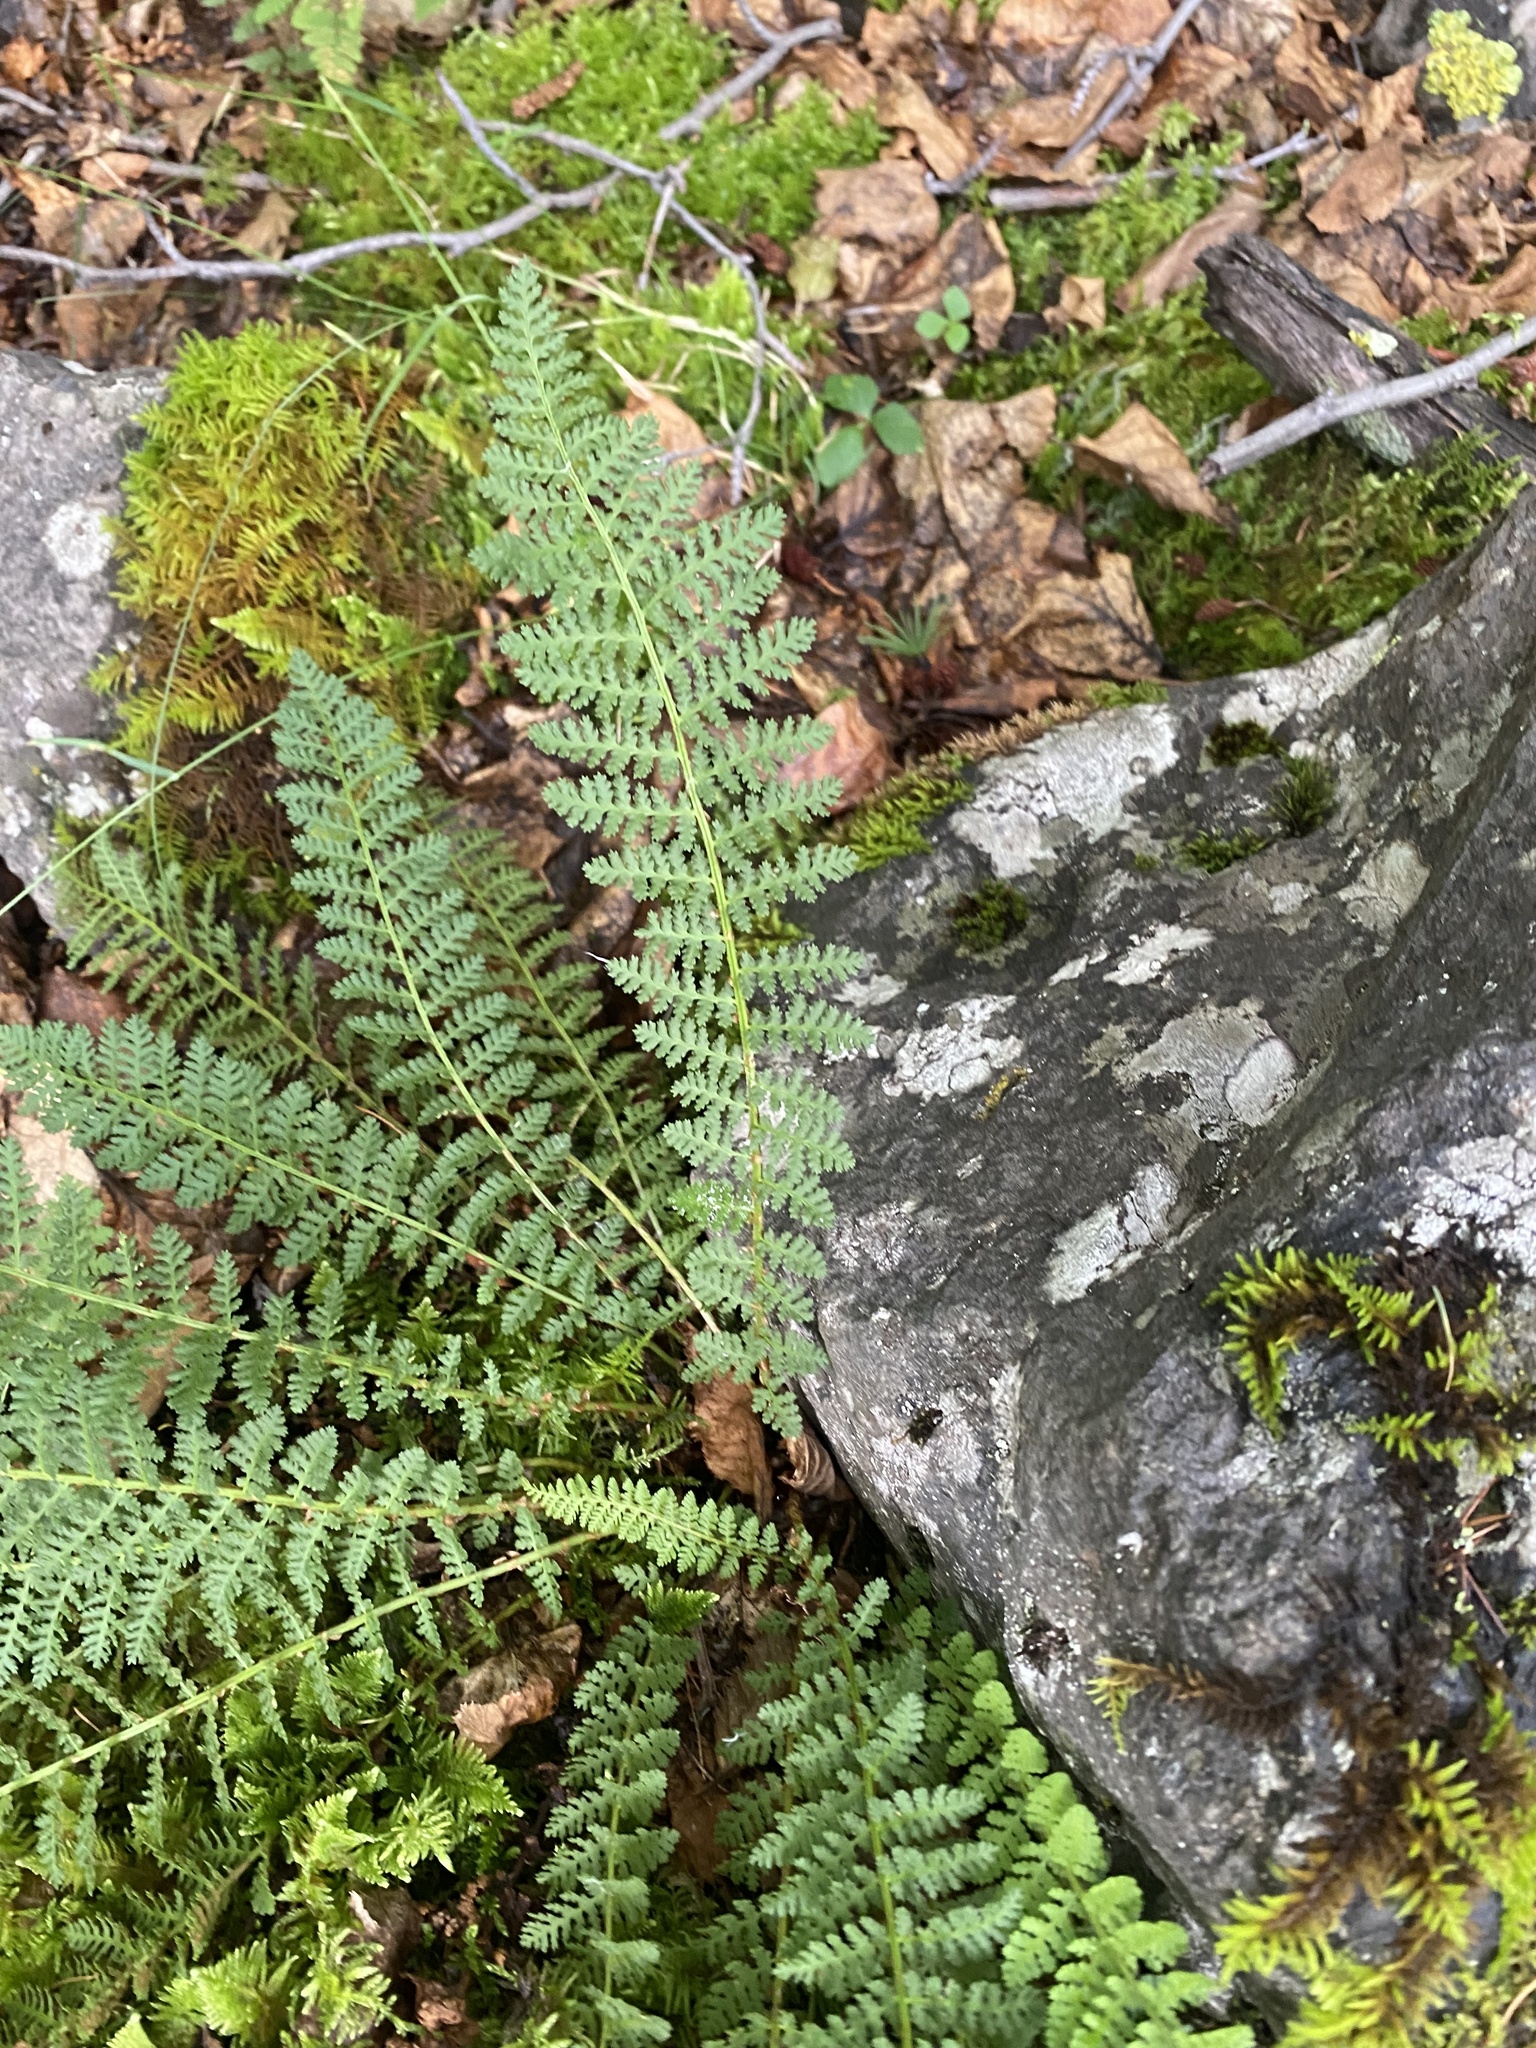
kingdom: Plantae
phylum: Tracheophyta
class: Polypodiopsida
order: Polypodiales
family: Dryopteridaceae
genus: Dryopteris
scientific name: Dryopteris fragrans
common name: Fragrant wood fern
